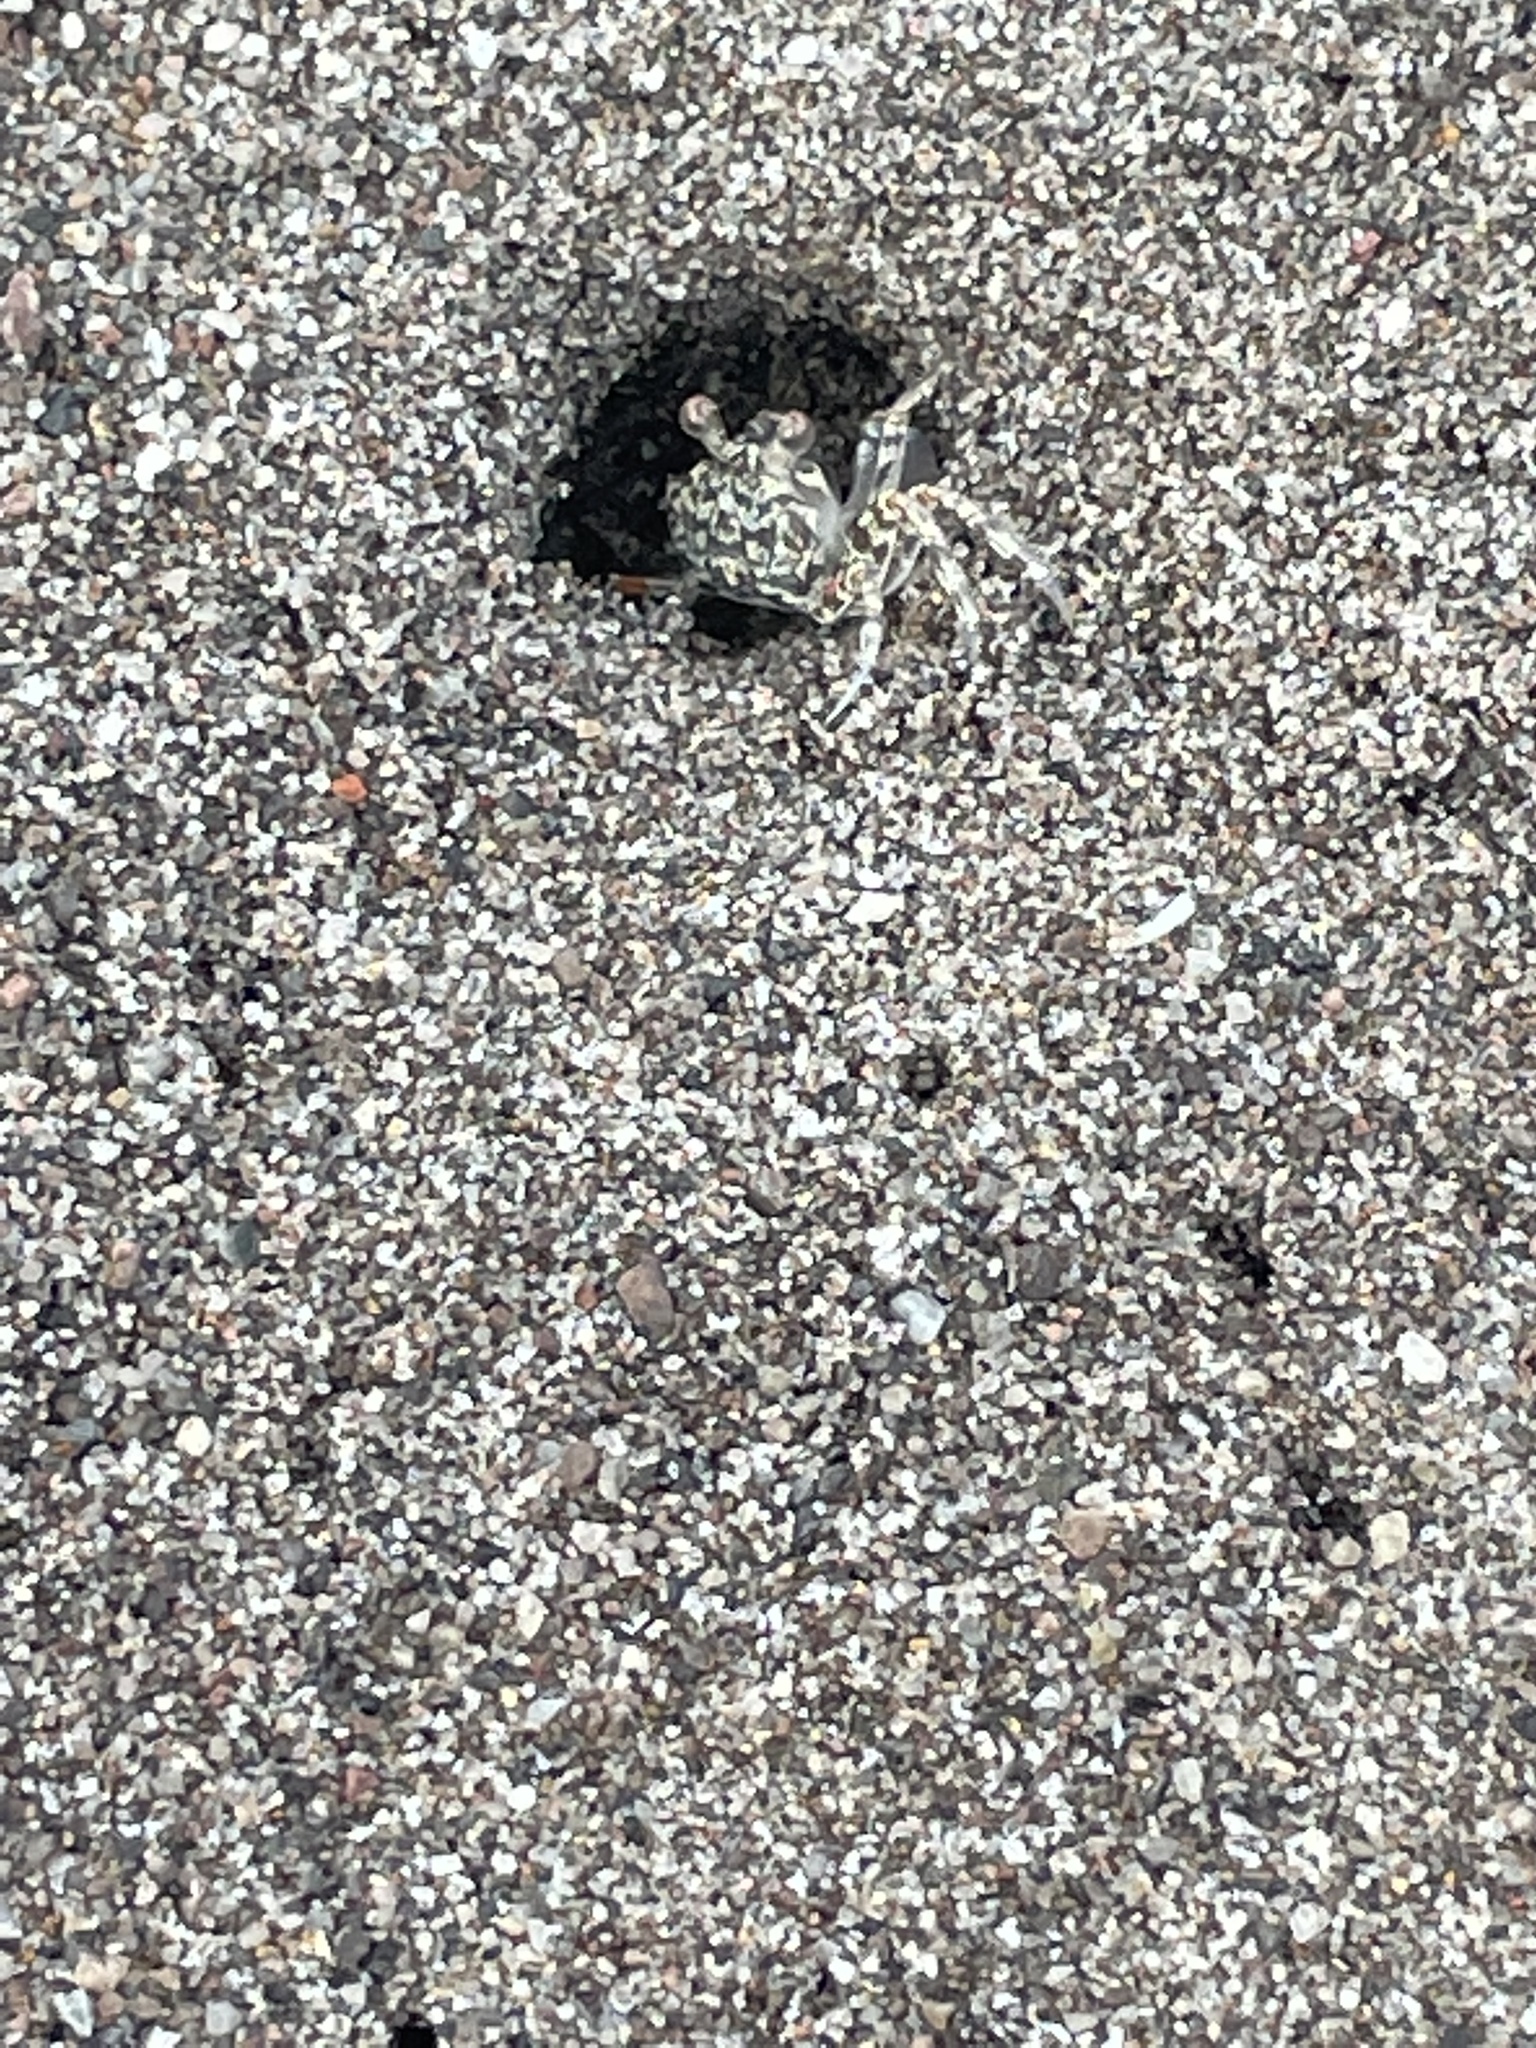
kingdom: Animalia
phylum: Arthropoda
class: Malacostraca
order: Decapoda
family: Ocypodidae
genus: Ocypode
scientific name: Ocypode quadrata
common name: Ghost crab
